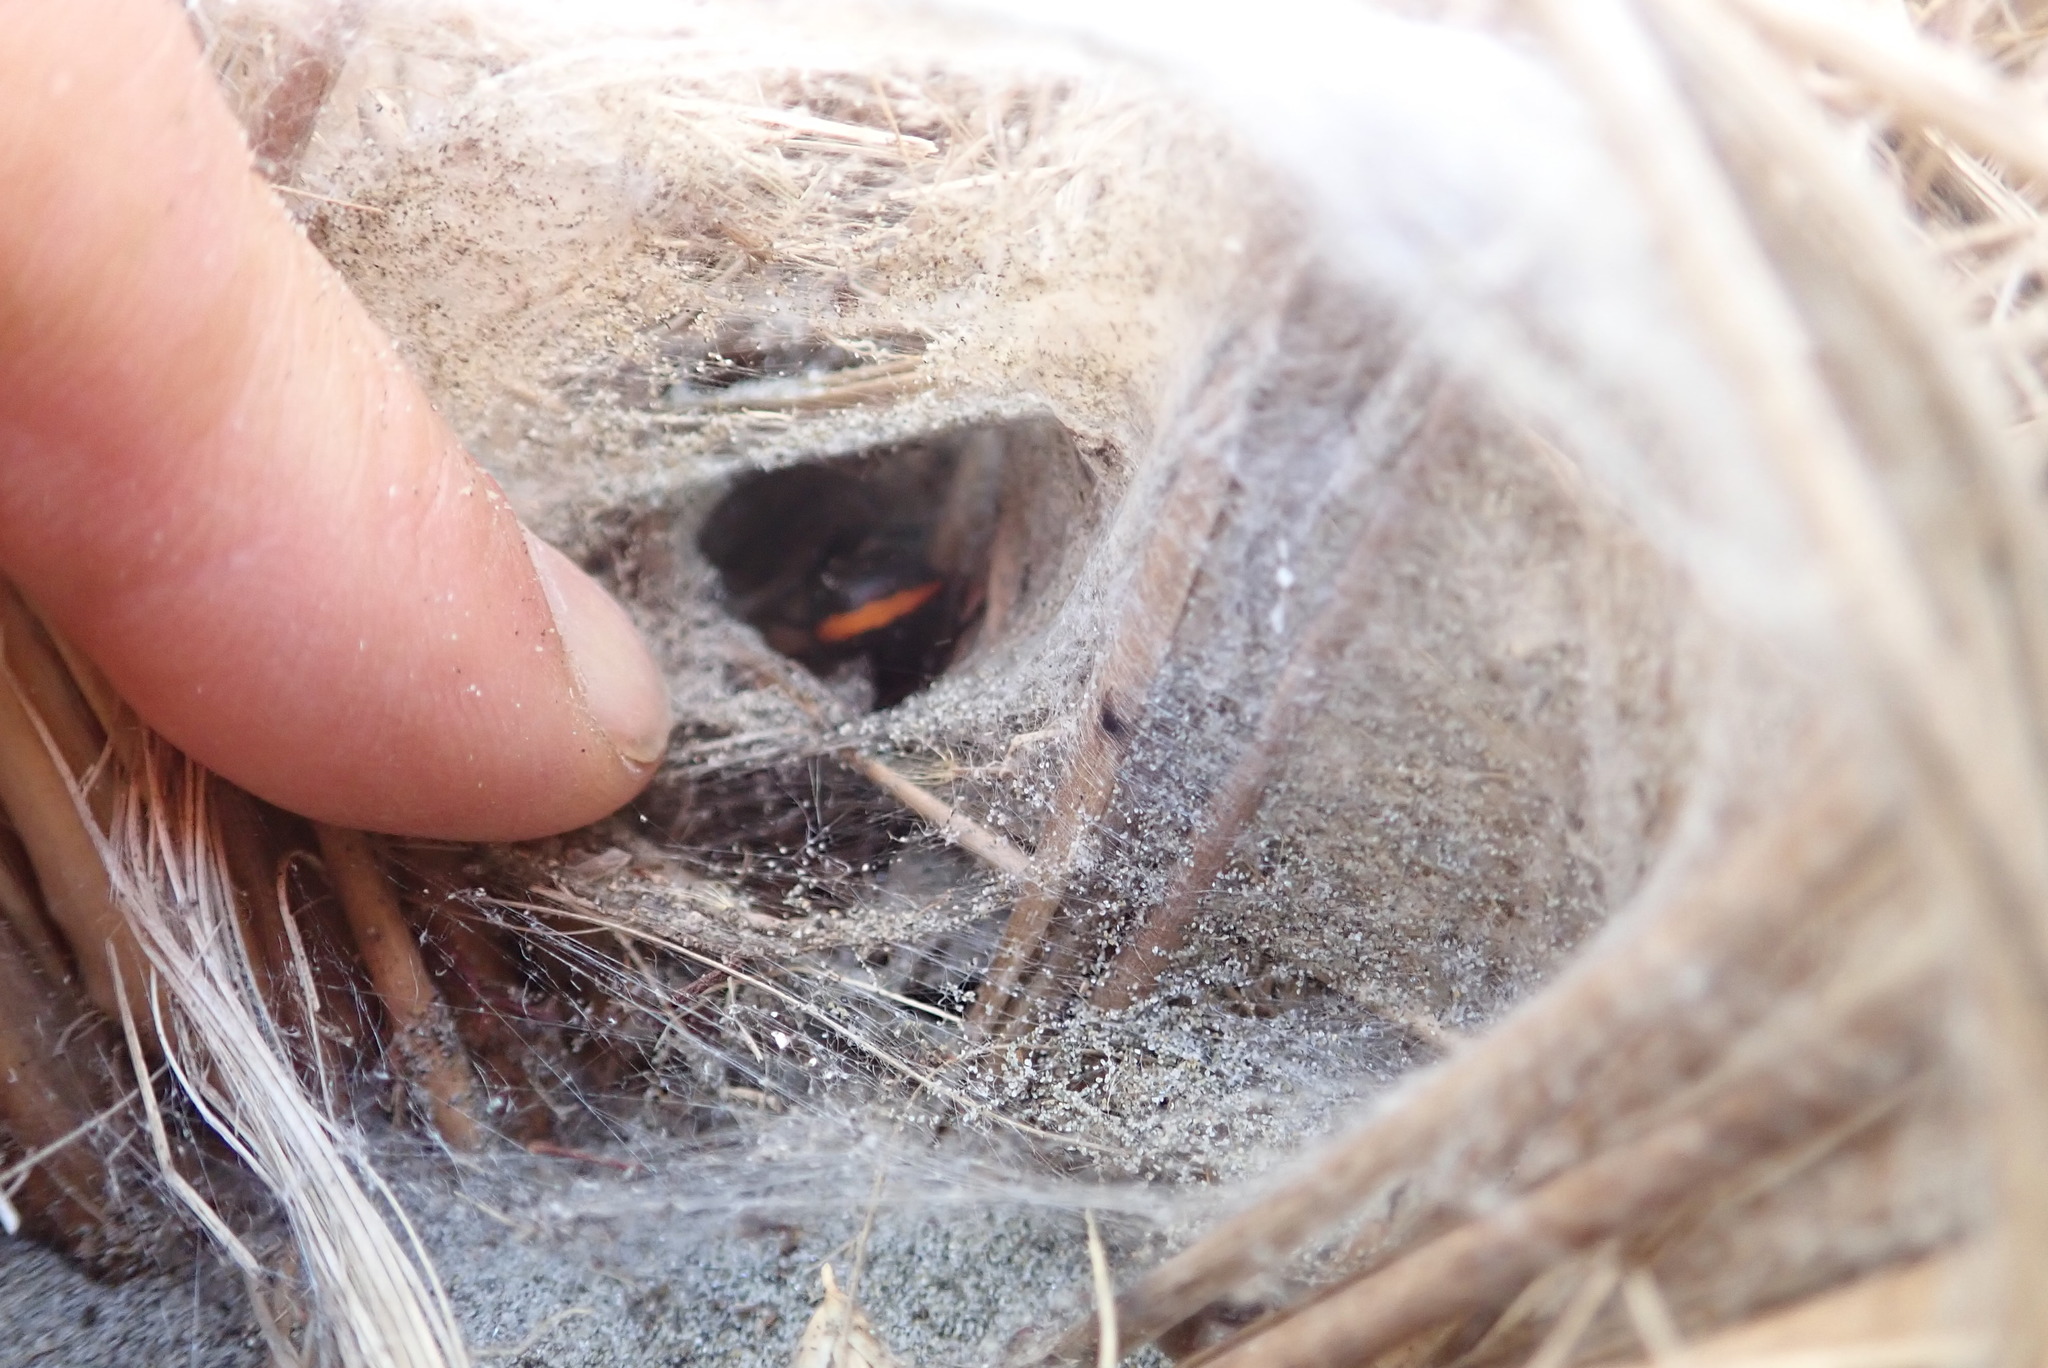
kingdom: Animalia
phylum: Arthropoda
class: Arachnida
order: Araneae
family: Theridiidae
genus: Latrodectus
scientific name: Latrodectus katipo
